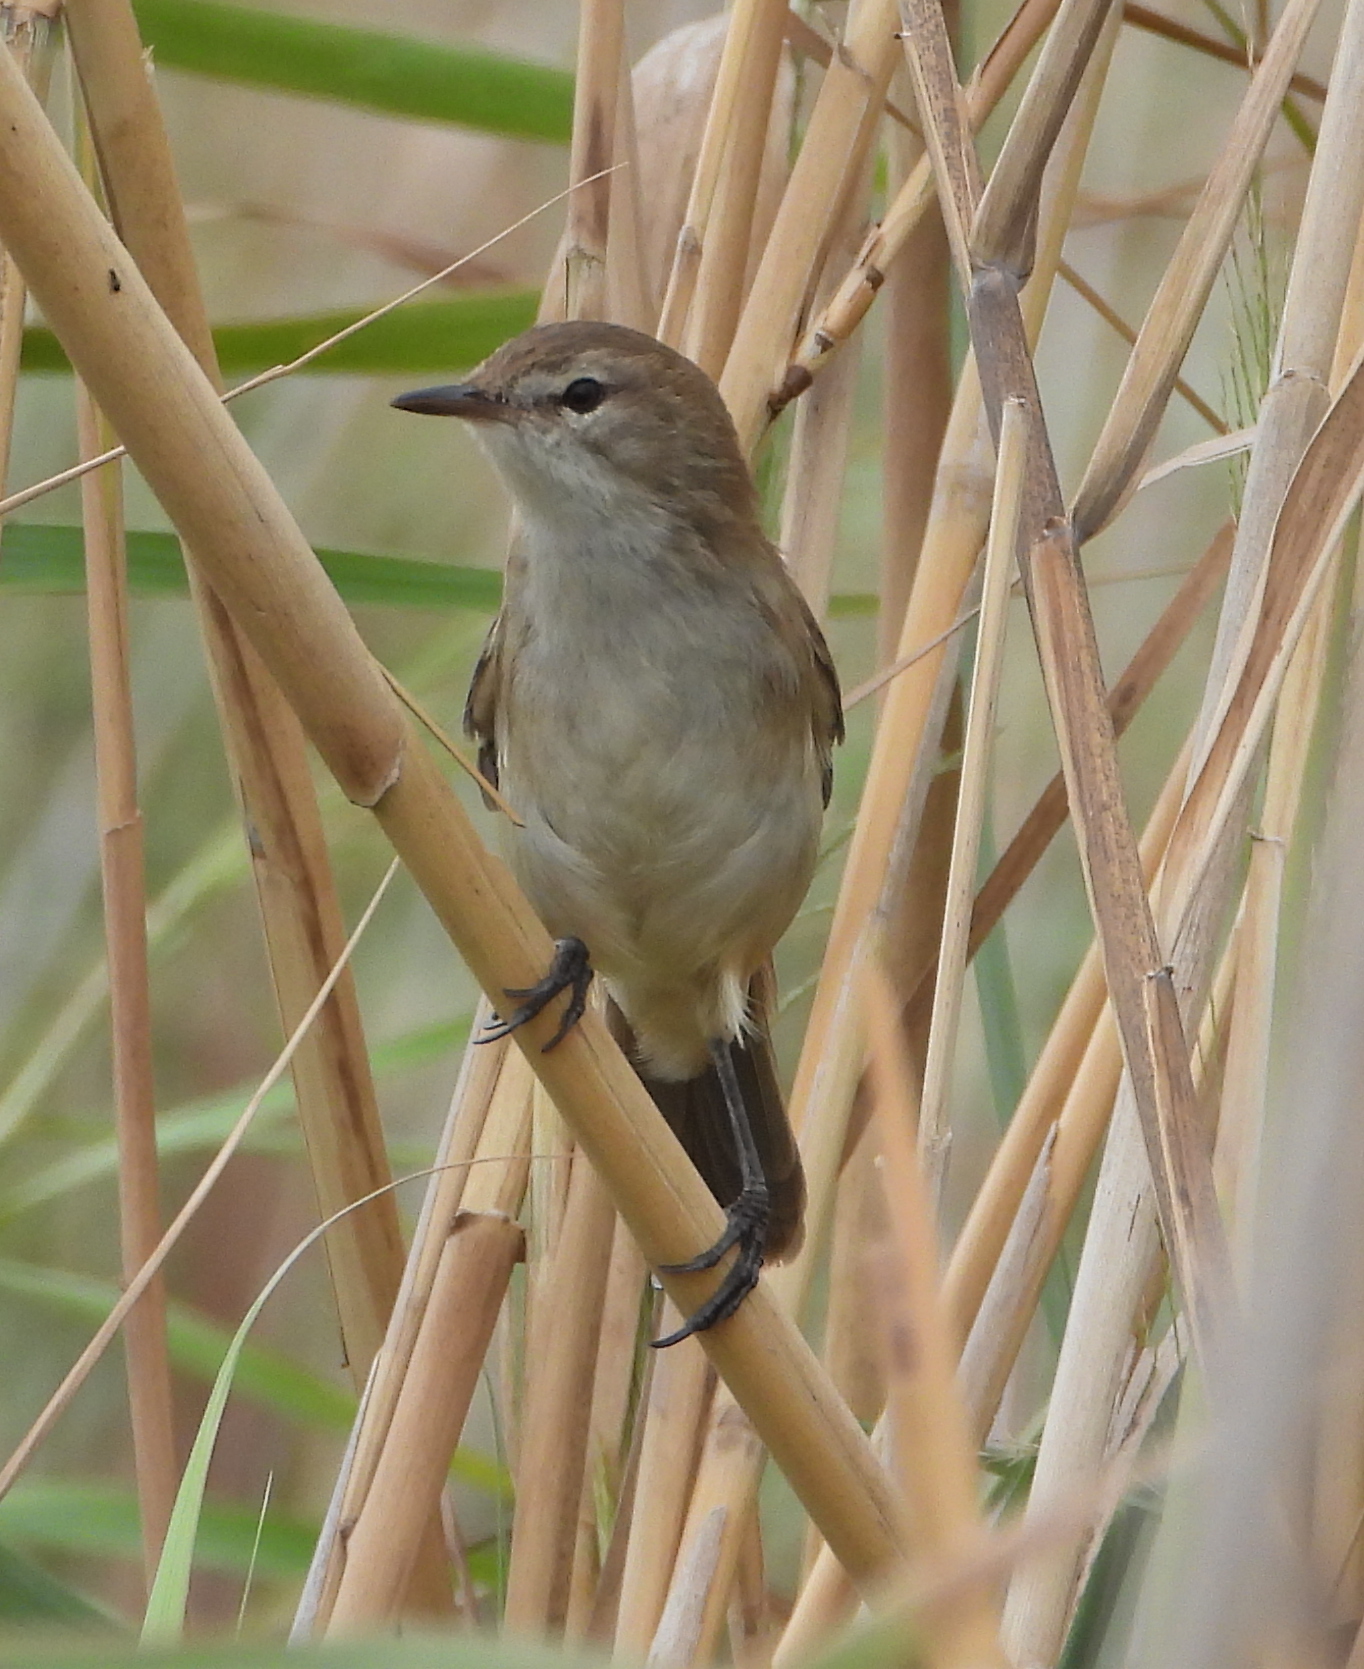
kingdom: Animalia
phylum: Chordata
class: Aves
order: Passeriformes
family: Acrocephalidae
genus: Acrocephalus
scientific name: Acrocephalus gracilirostris
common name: Lesser swamp warbler
